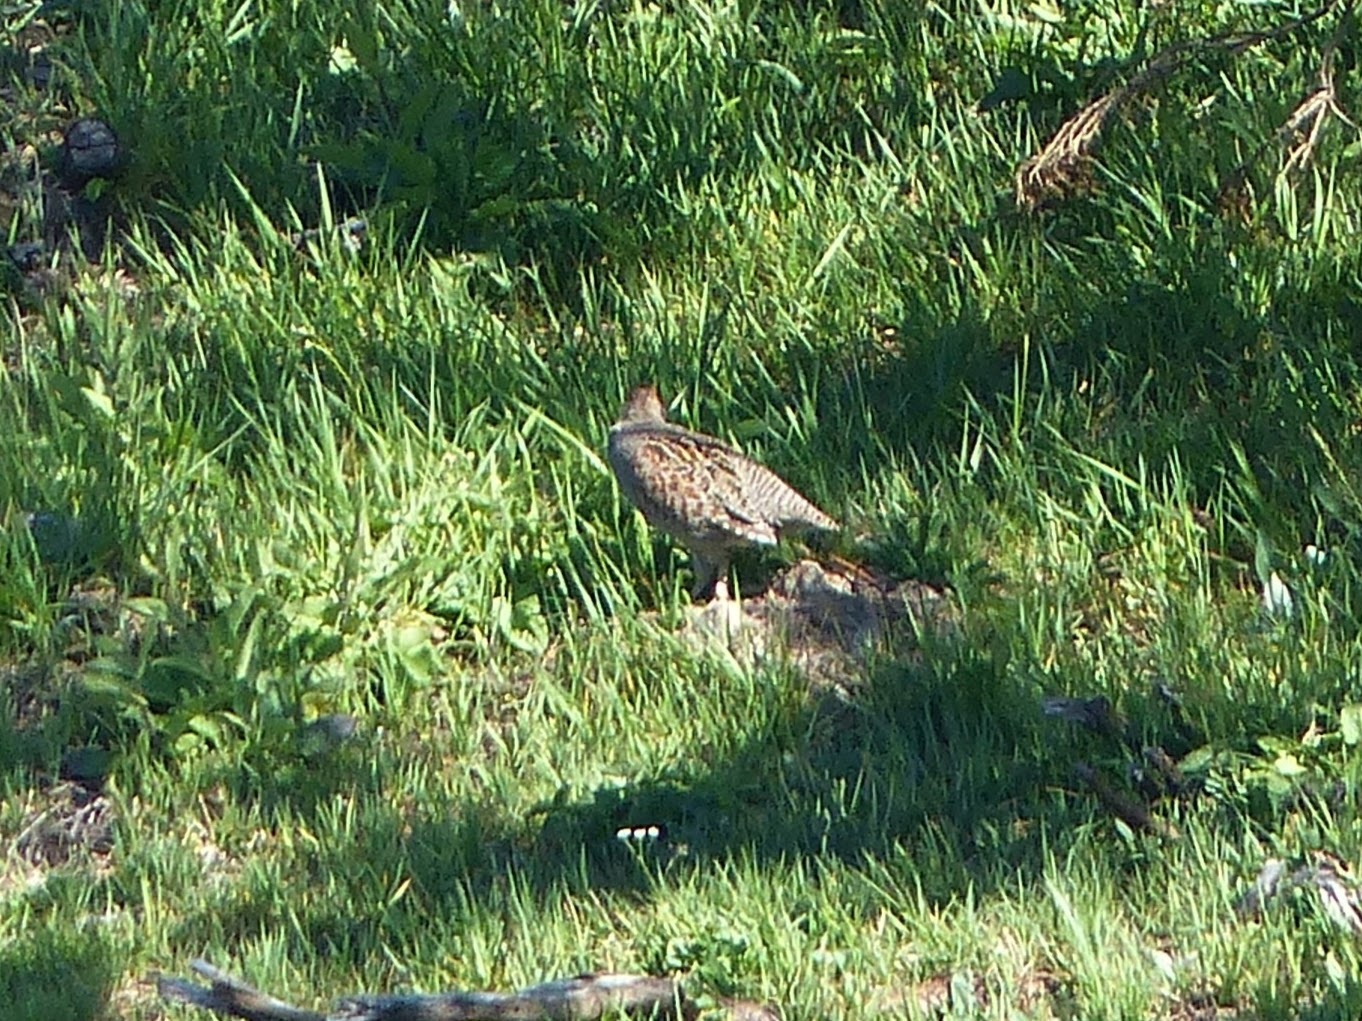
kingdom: Animalia
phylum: Chordata
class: Aves
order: Galliformes
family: Phasianidae
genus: Perdix
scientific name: Perdix perdix
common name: Grey partridge
